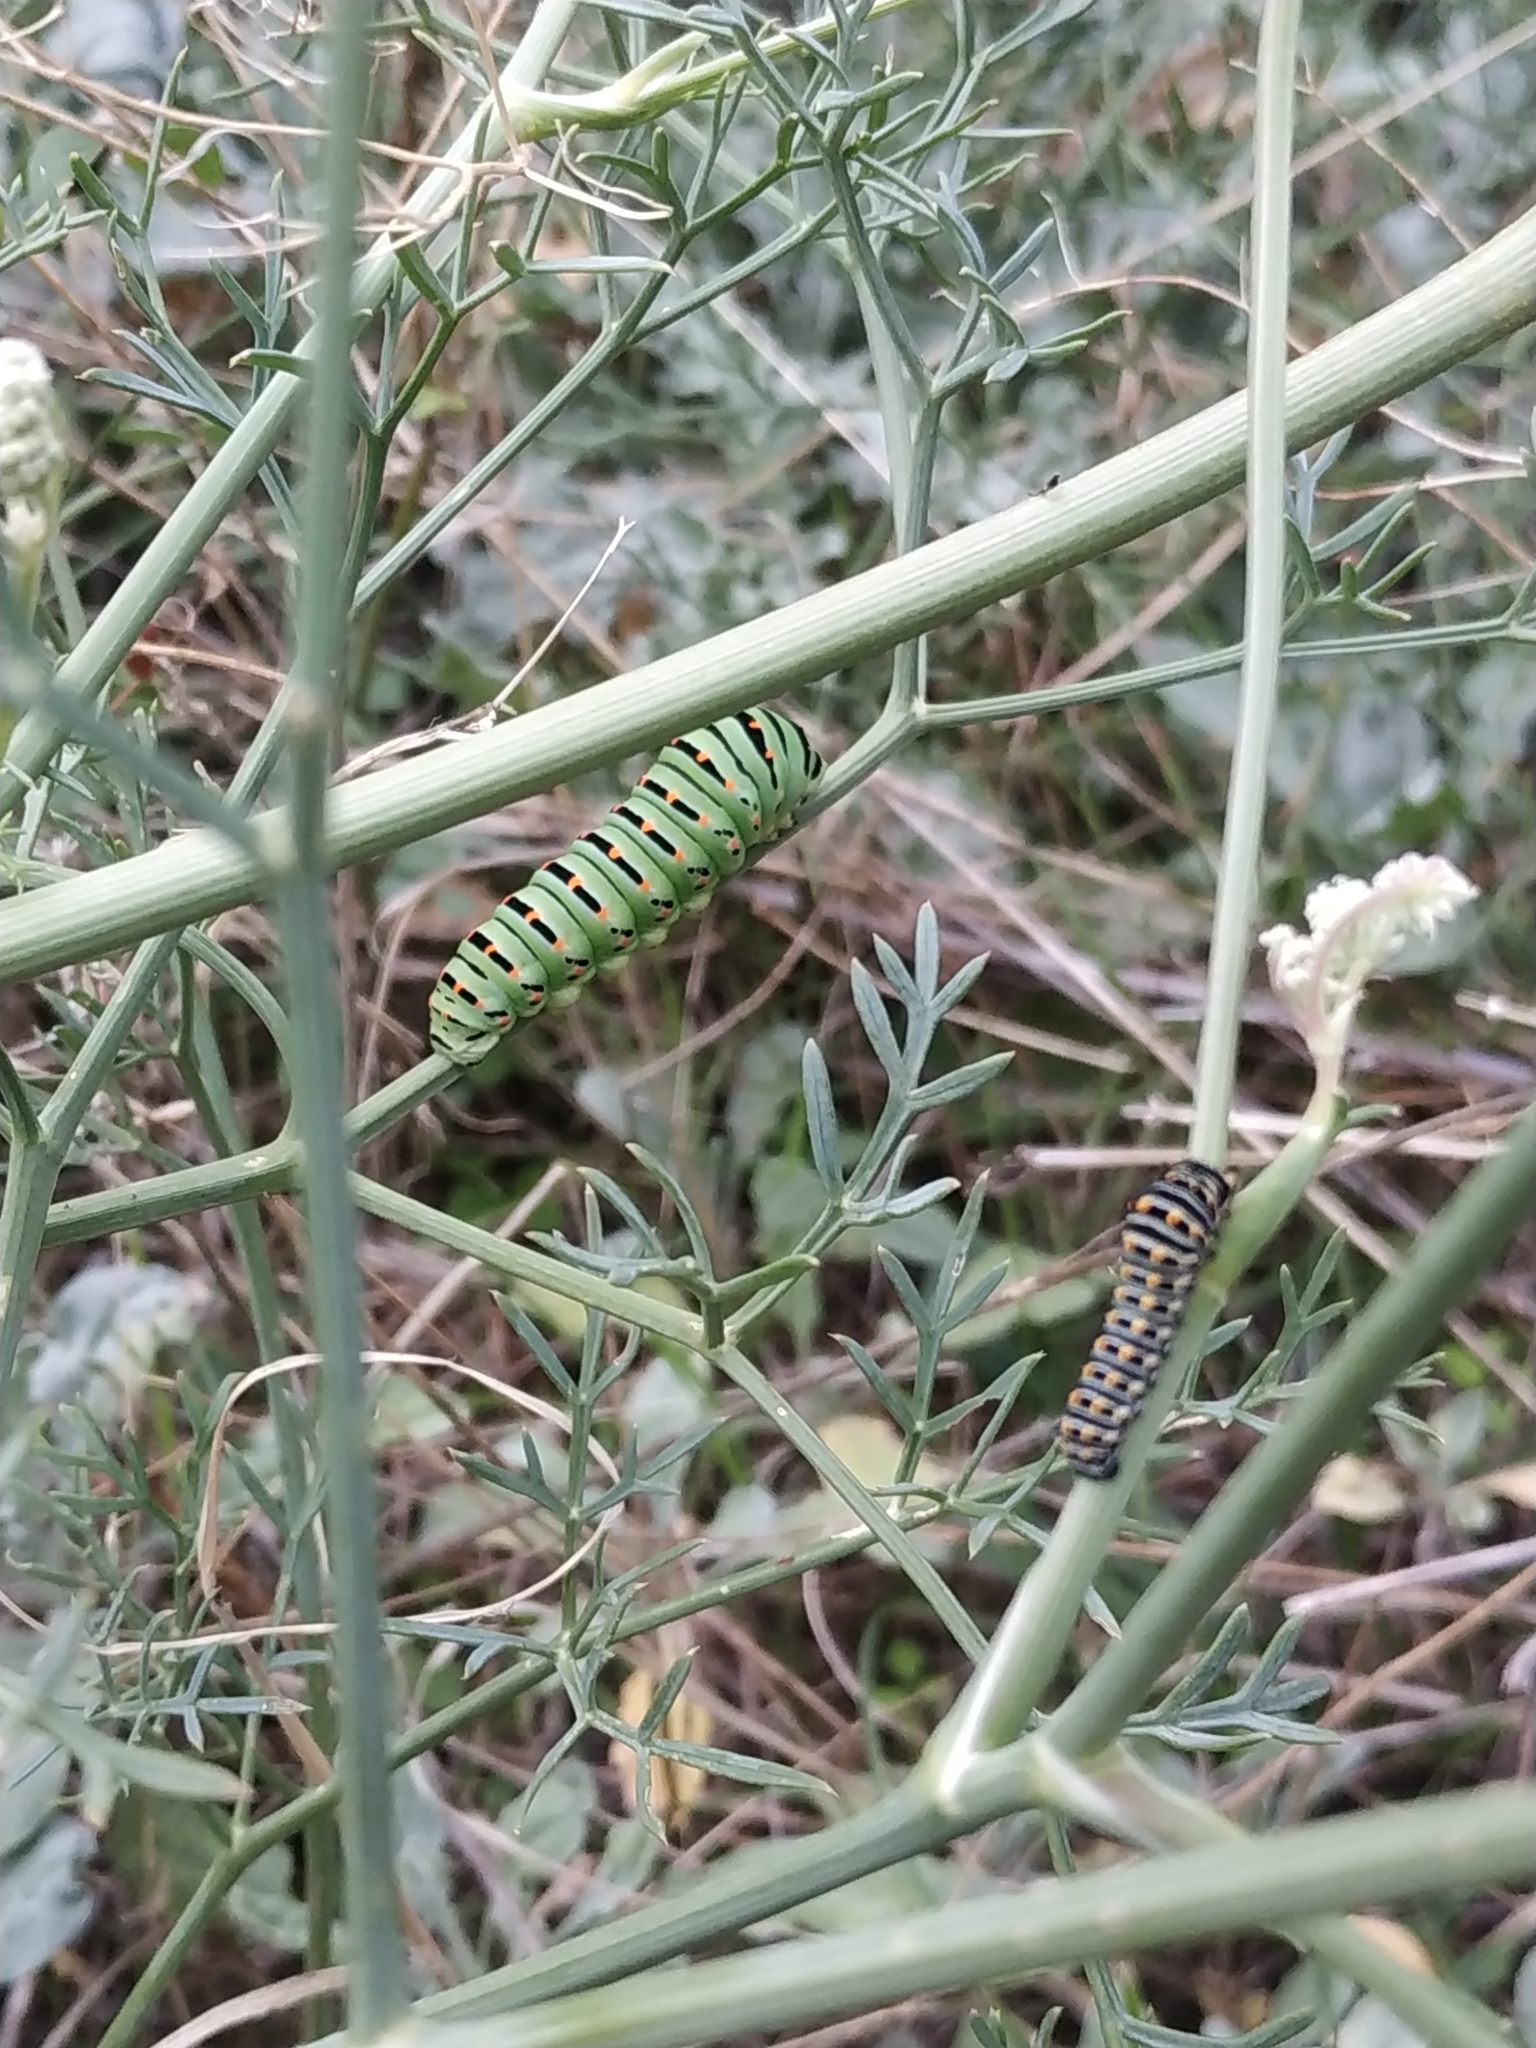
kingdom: Animalia
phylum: Arthropoda
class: Insecta
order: Lepidoptera
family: Papilionidae
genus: Papilio
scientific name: Papilio machaon
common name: Swallowtail
